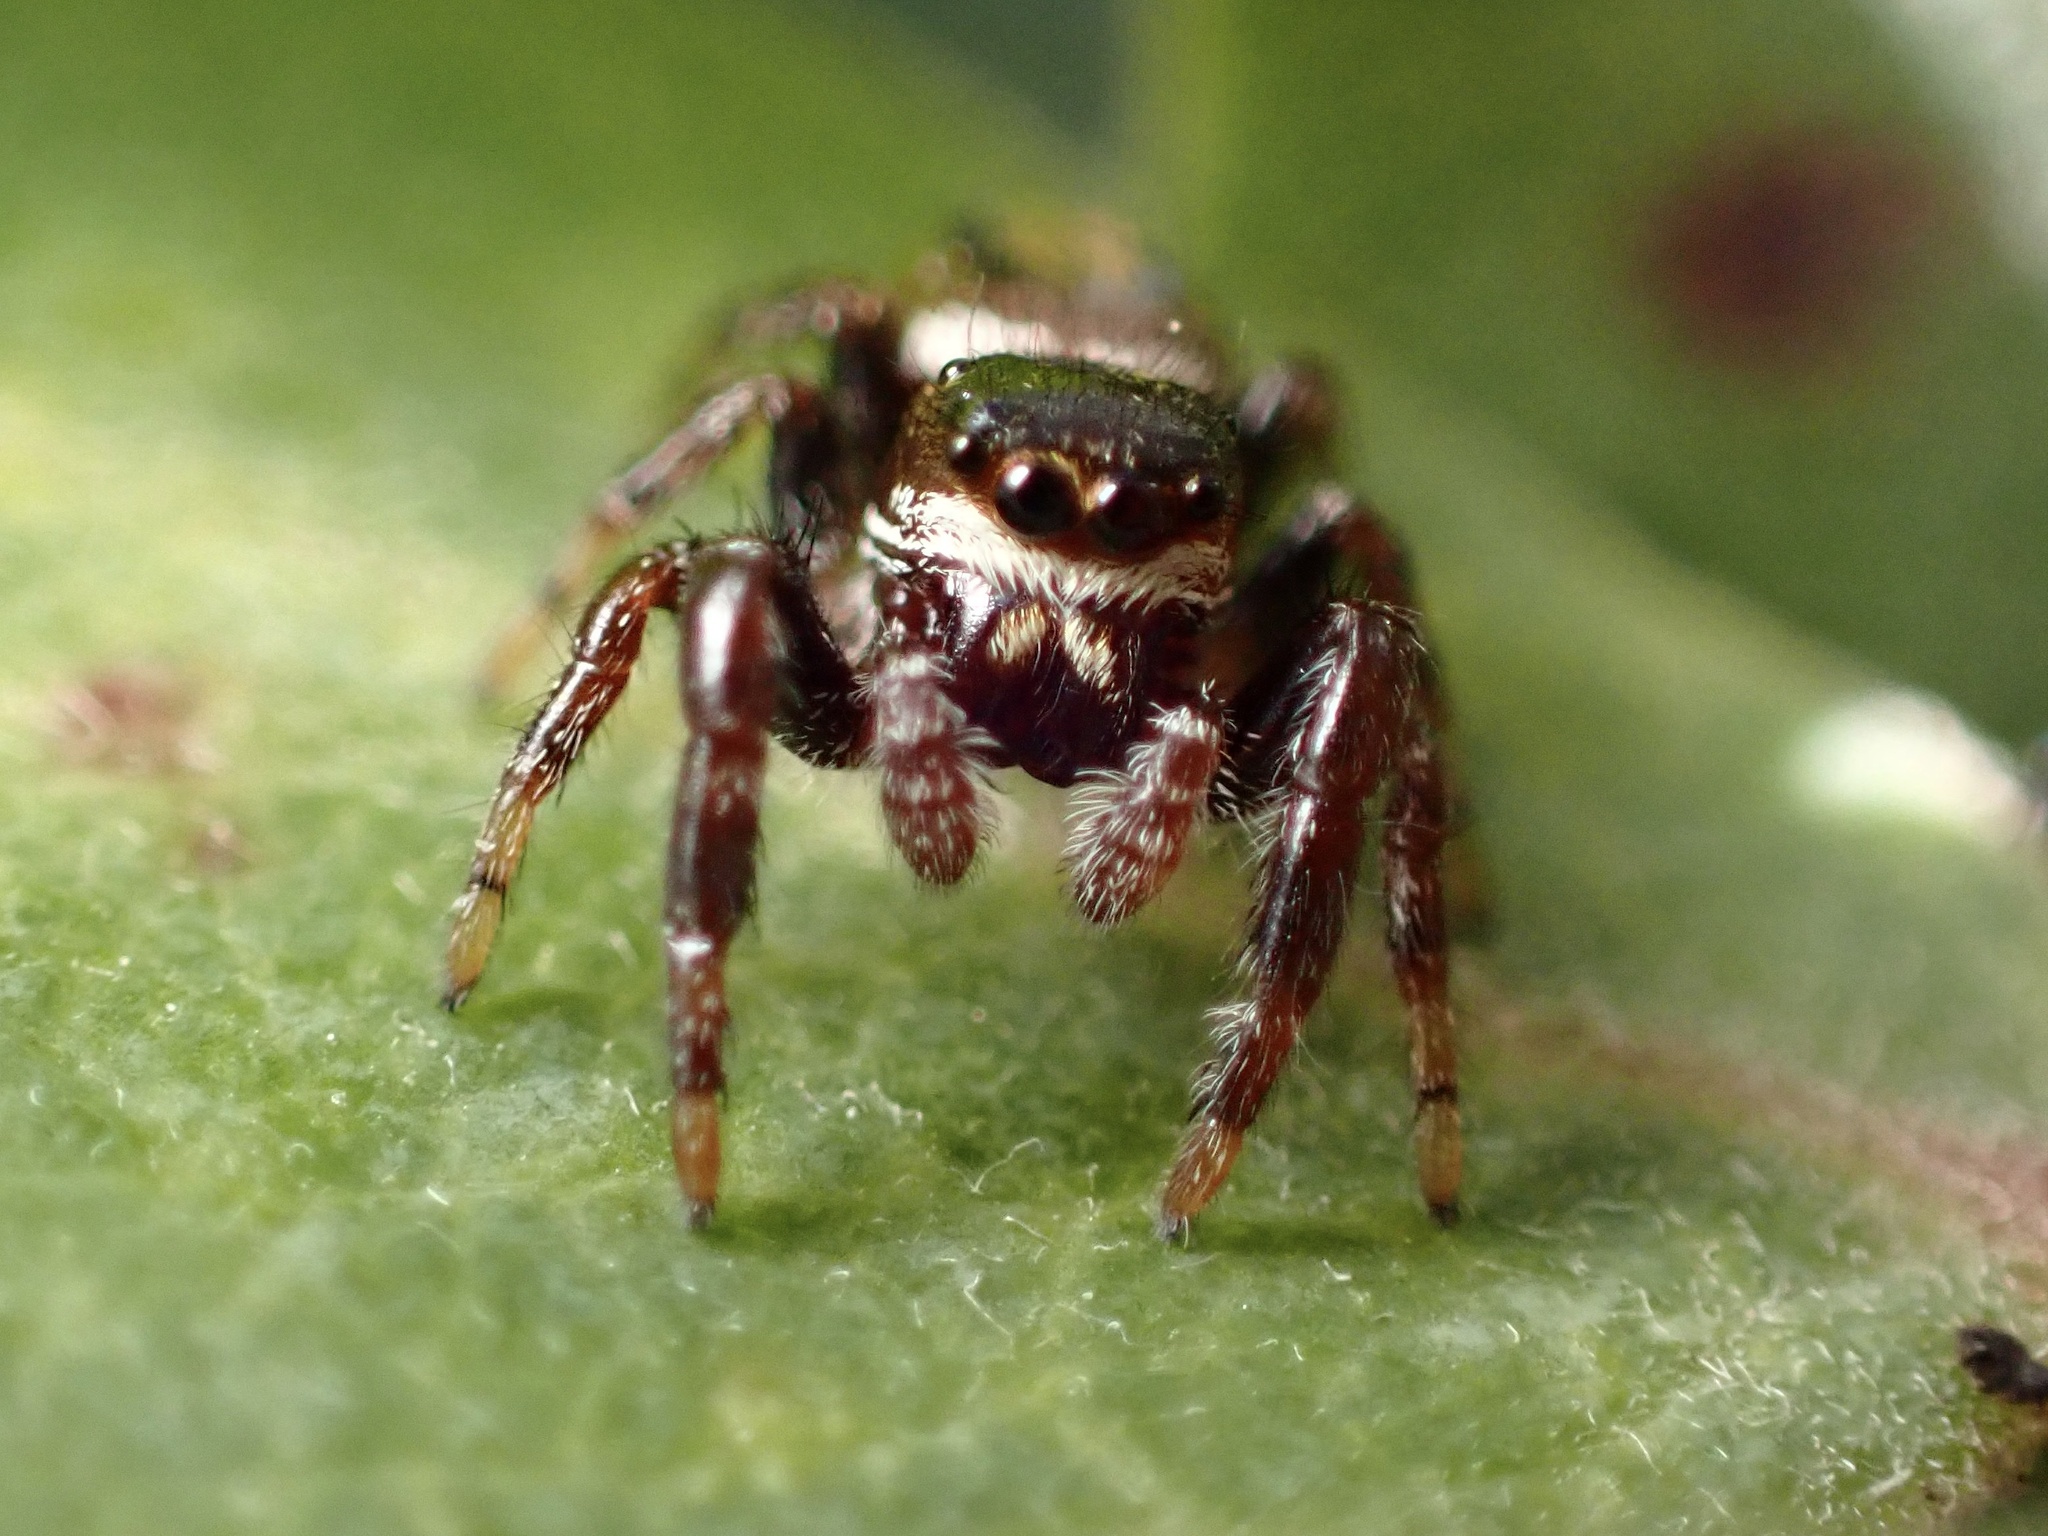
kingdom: Animalia
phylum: Arthropoda
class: Arachnida
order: Araneae
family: Salticidae
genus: Metaphidippus
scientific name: Metaphidippus manni
